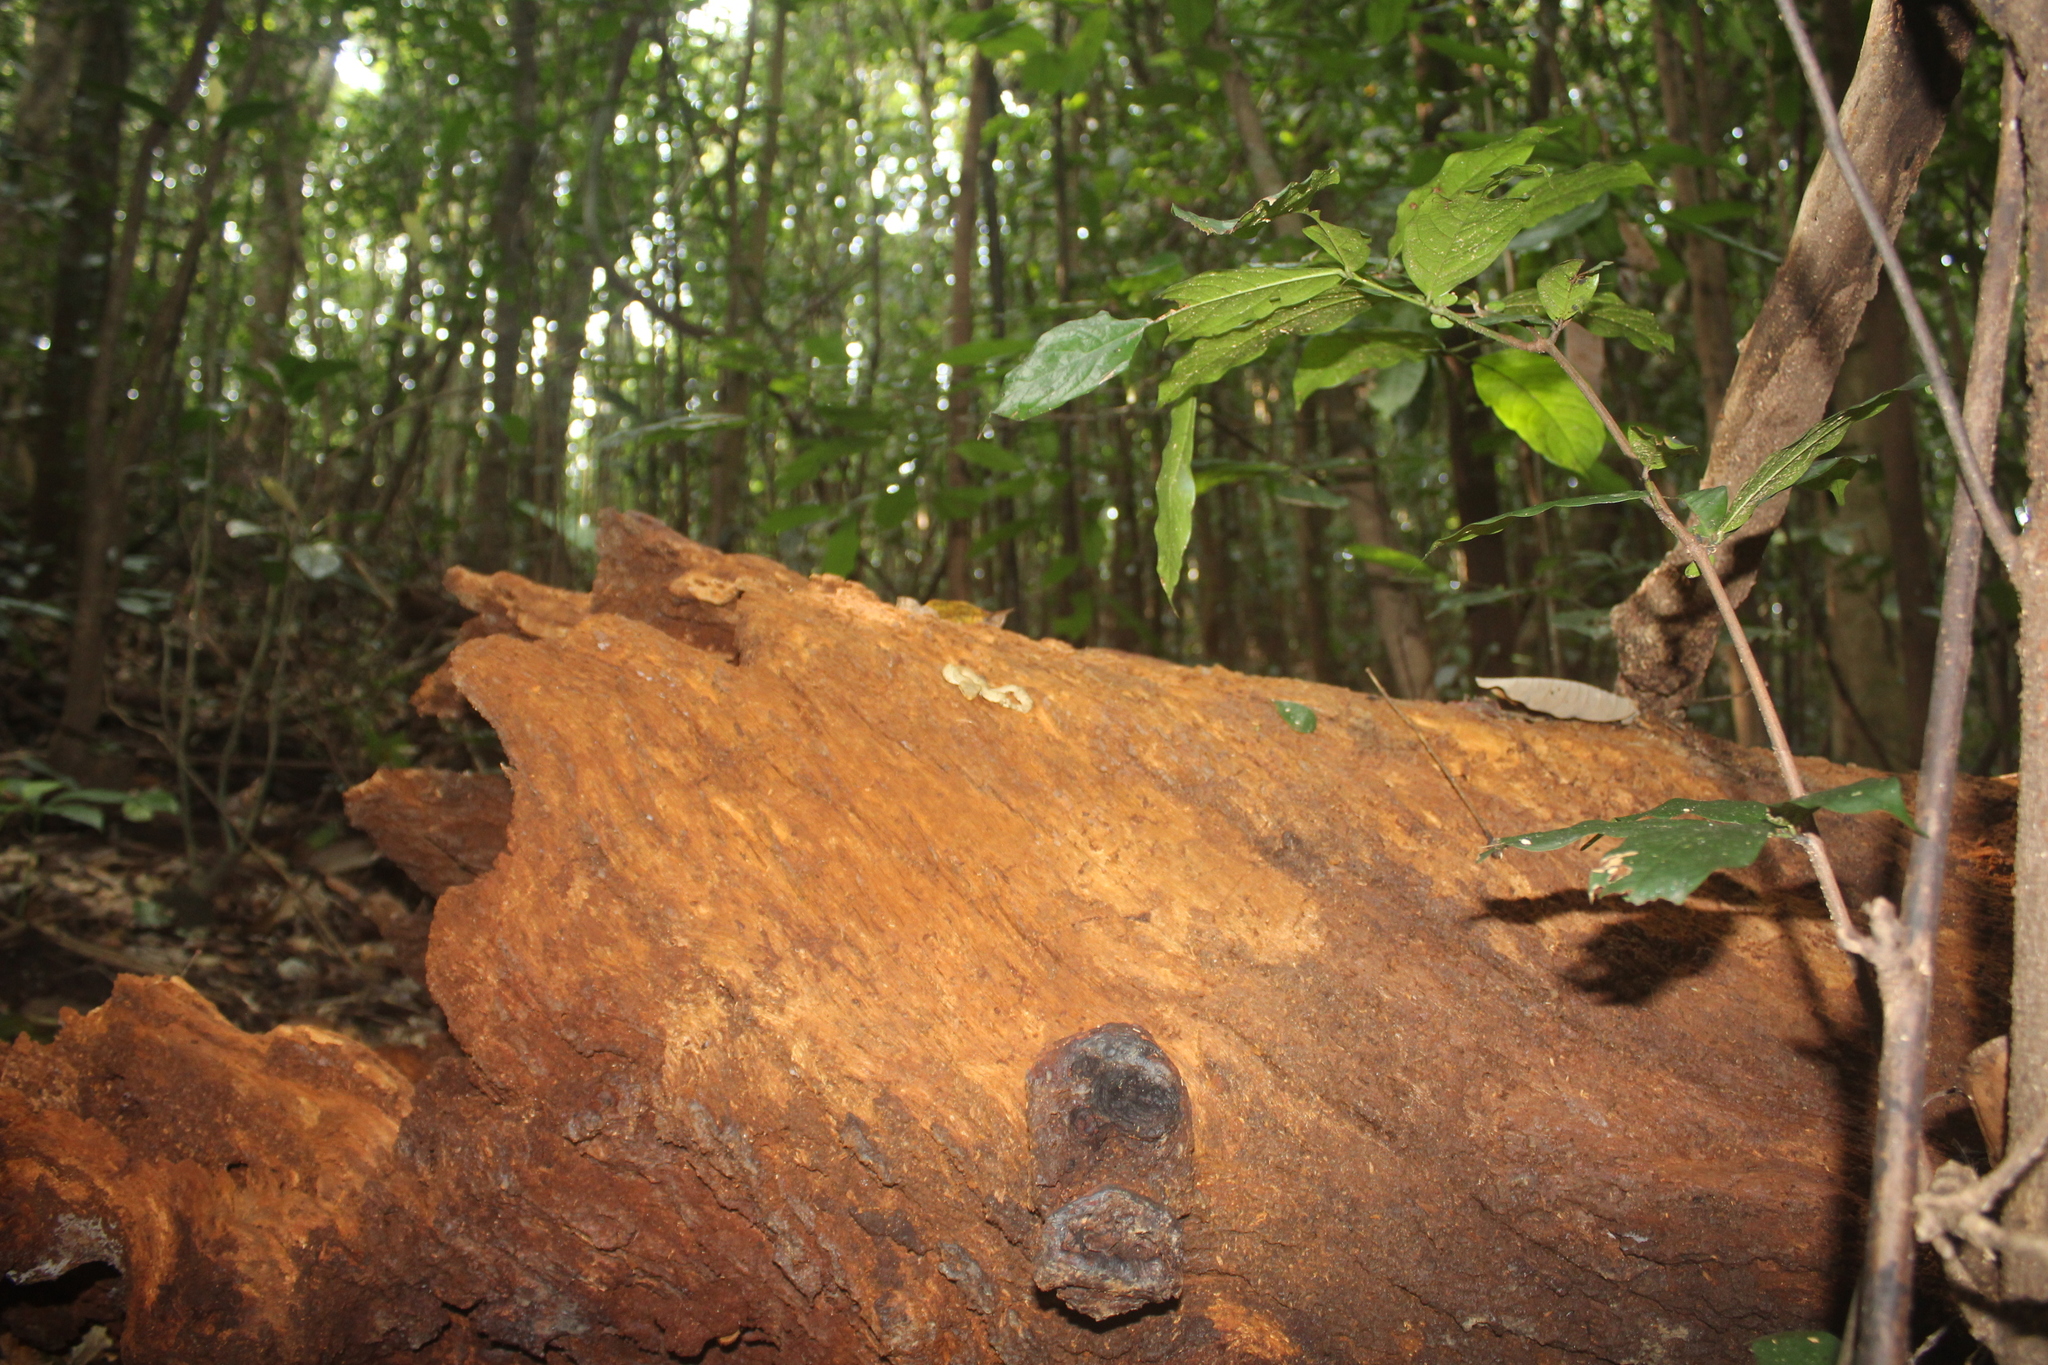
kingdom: Animalia
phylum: Chordata
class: Squamata
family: Viperidae
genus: Craspedocephalus
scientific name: Craspedocephalus malabaricus
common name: Malabarian pit viper
